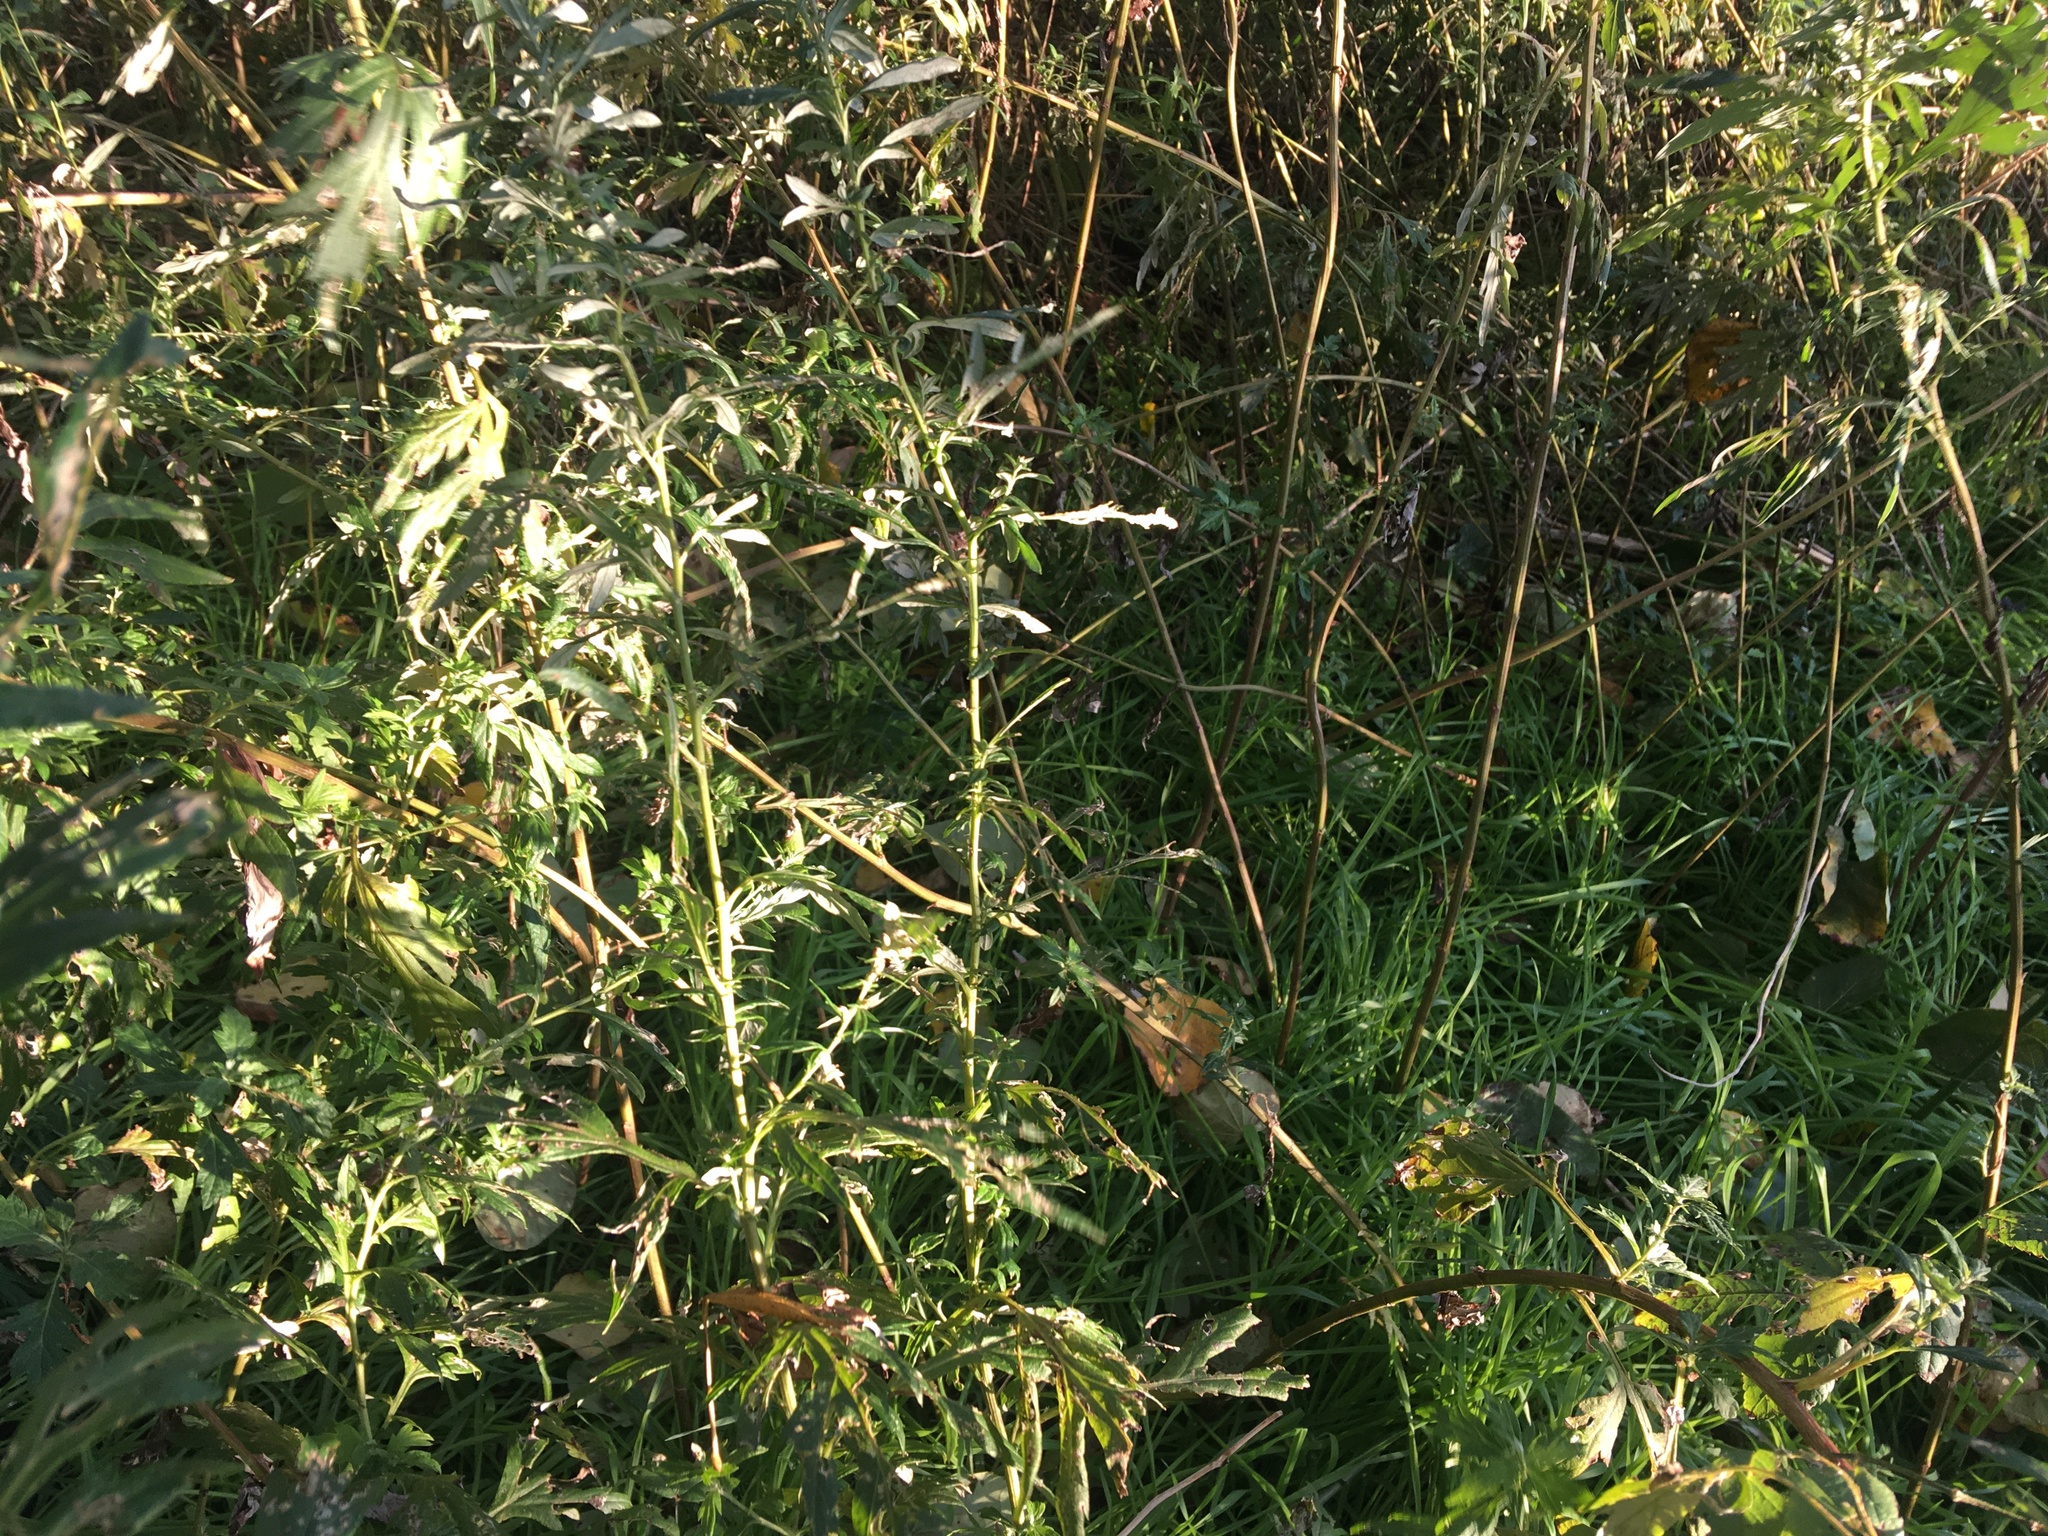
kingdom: Plantae
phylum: Tracheophyta
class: Magnoliopsida
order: Asterales
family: Asteraceae
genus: Artemisia
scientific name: Artemisia vulgaris
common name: Mugwort
